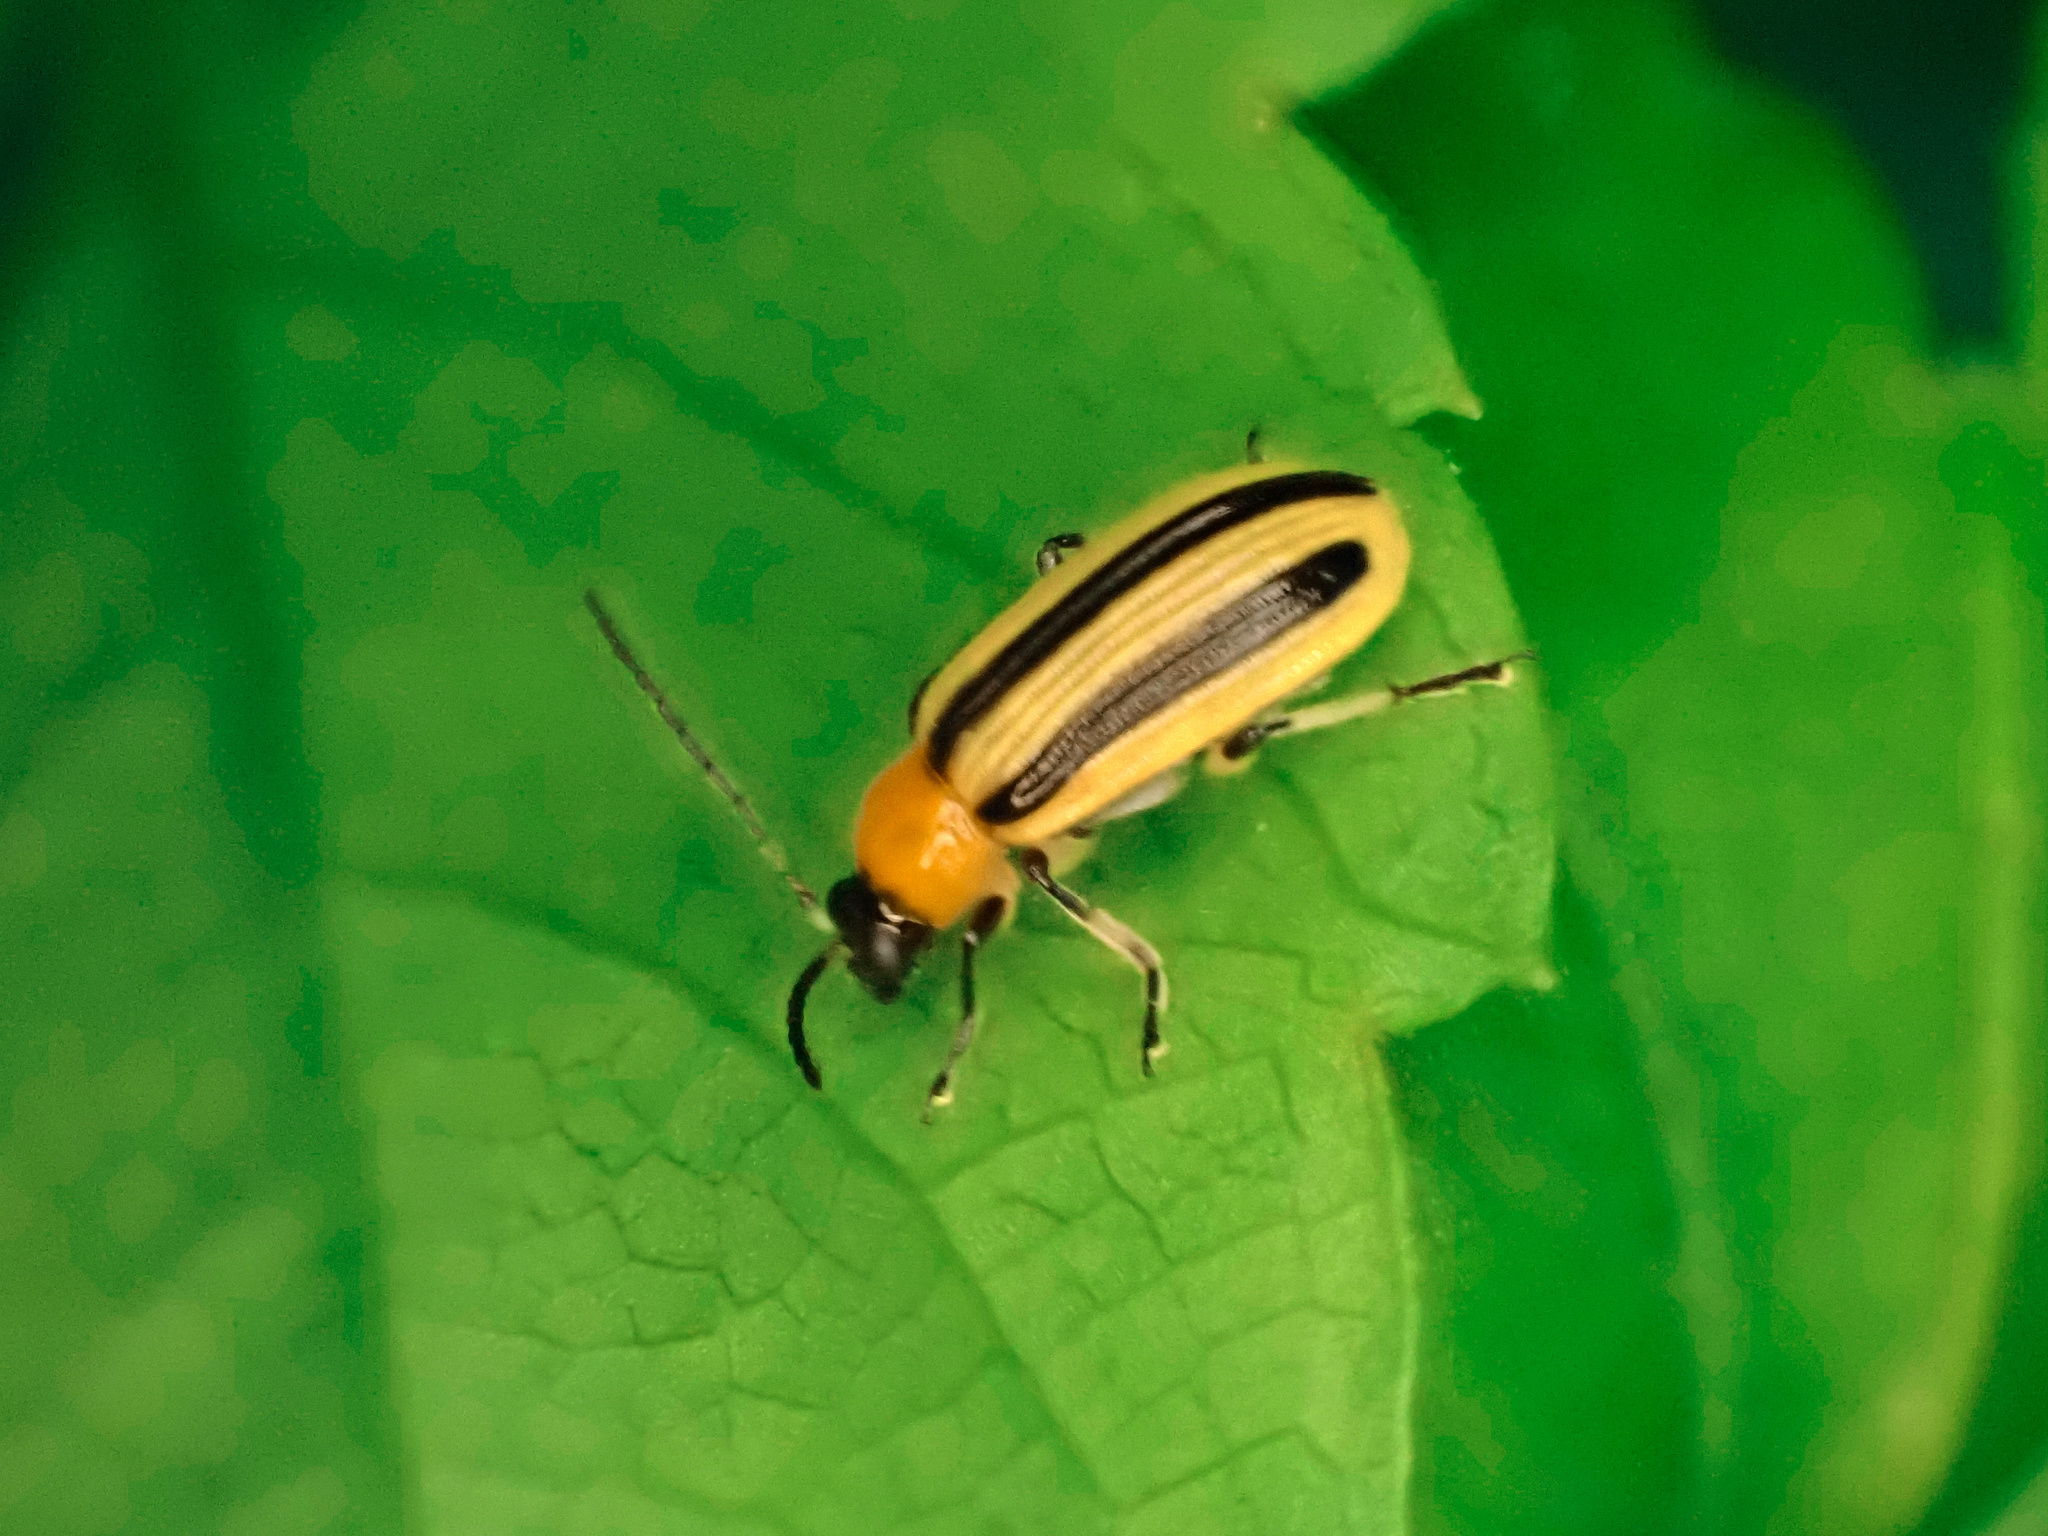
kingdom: Animalia
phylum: Arthropoda
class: Insecta
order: Coleoptera
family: Chrysomelidae
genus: Acalymma
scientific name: Acalymma vittatum
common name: Striped cucumber beetle
